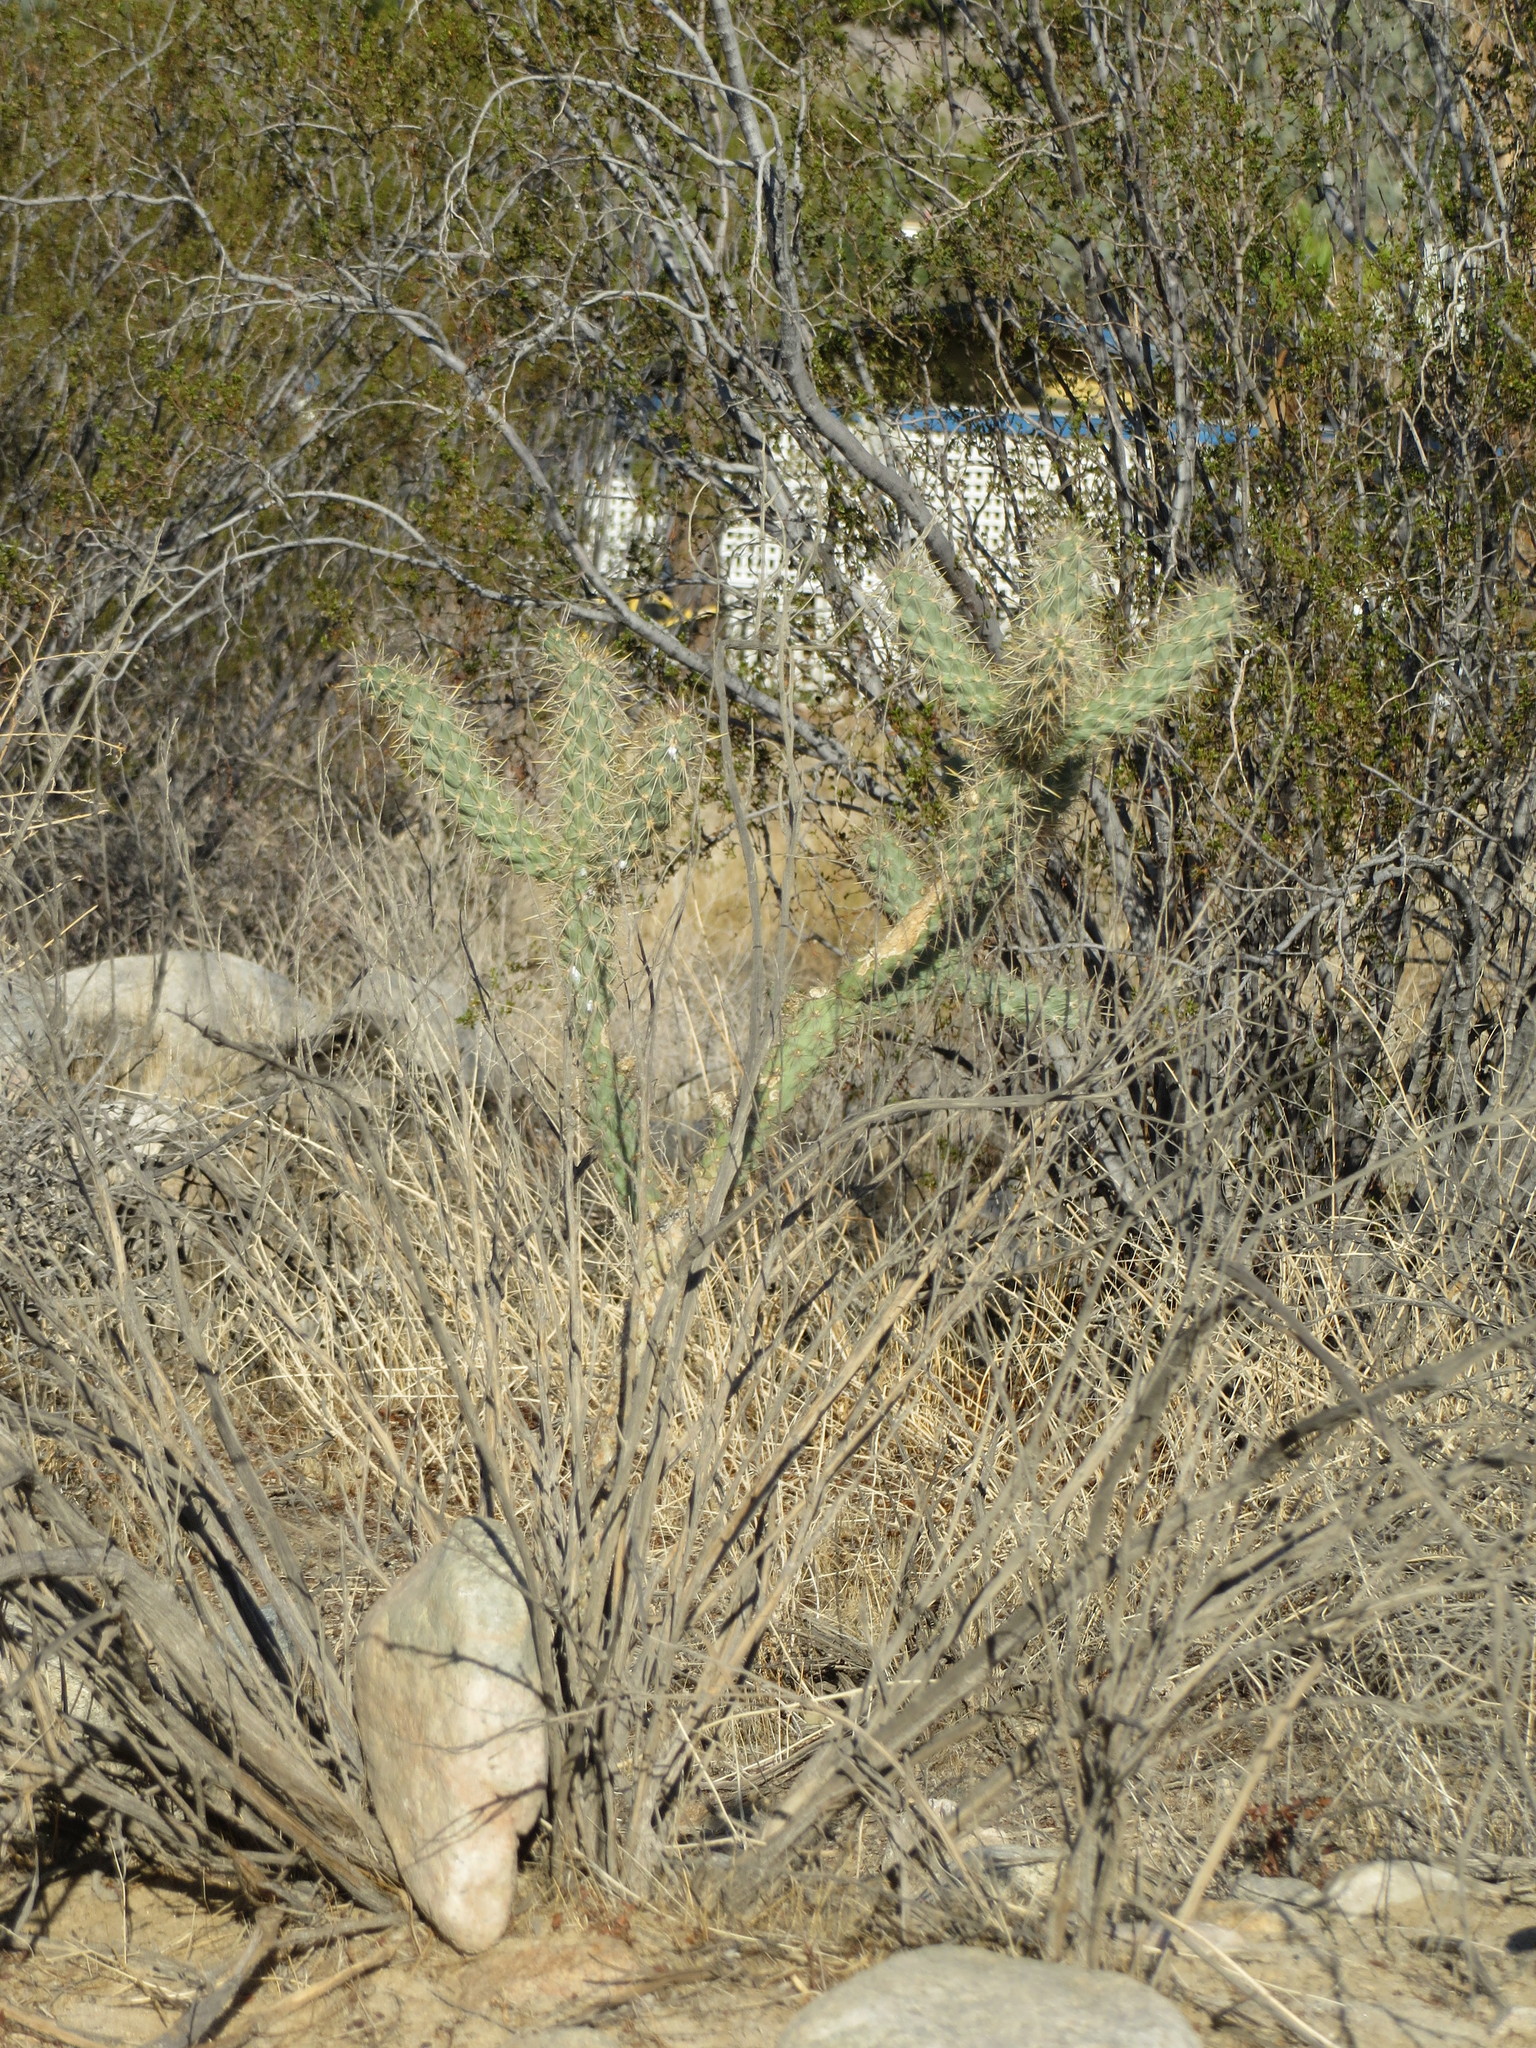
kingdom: Plantae
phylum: Tracheophyta
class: Magnoliopsida
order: Caryophyllales
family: Cactaceae
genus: Cylindropuntia
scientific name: Cylindropuntia echinocarpa
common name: Ground cholla
